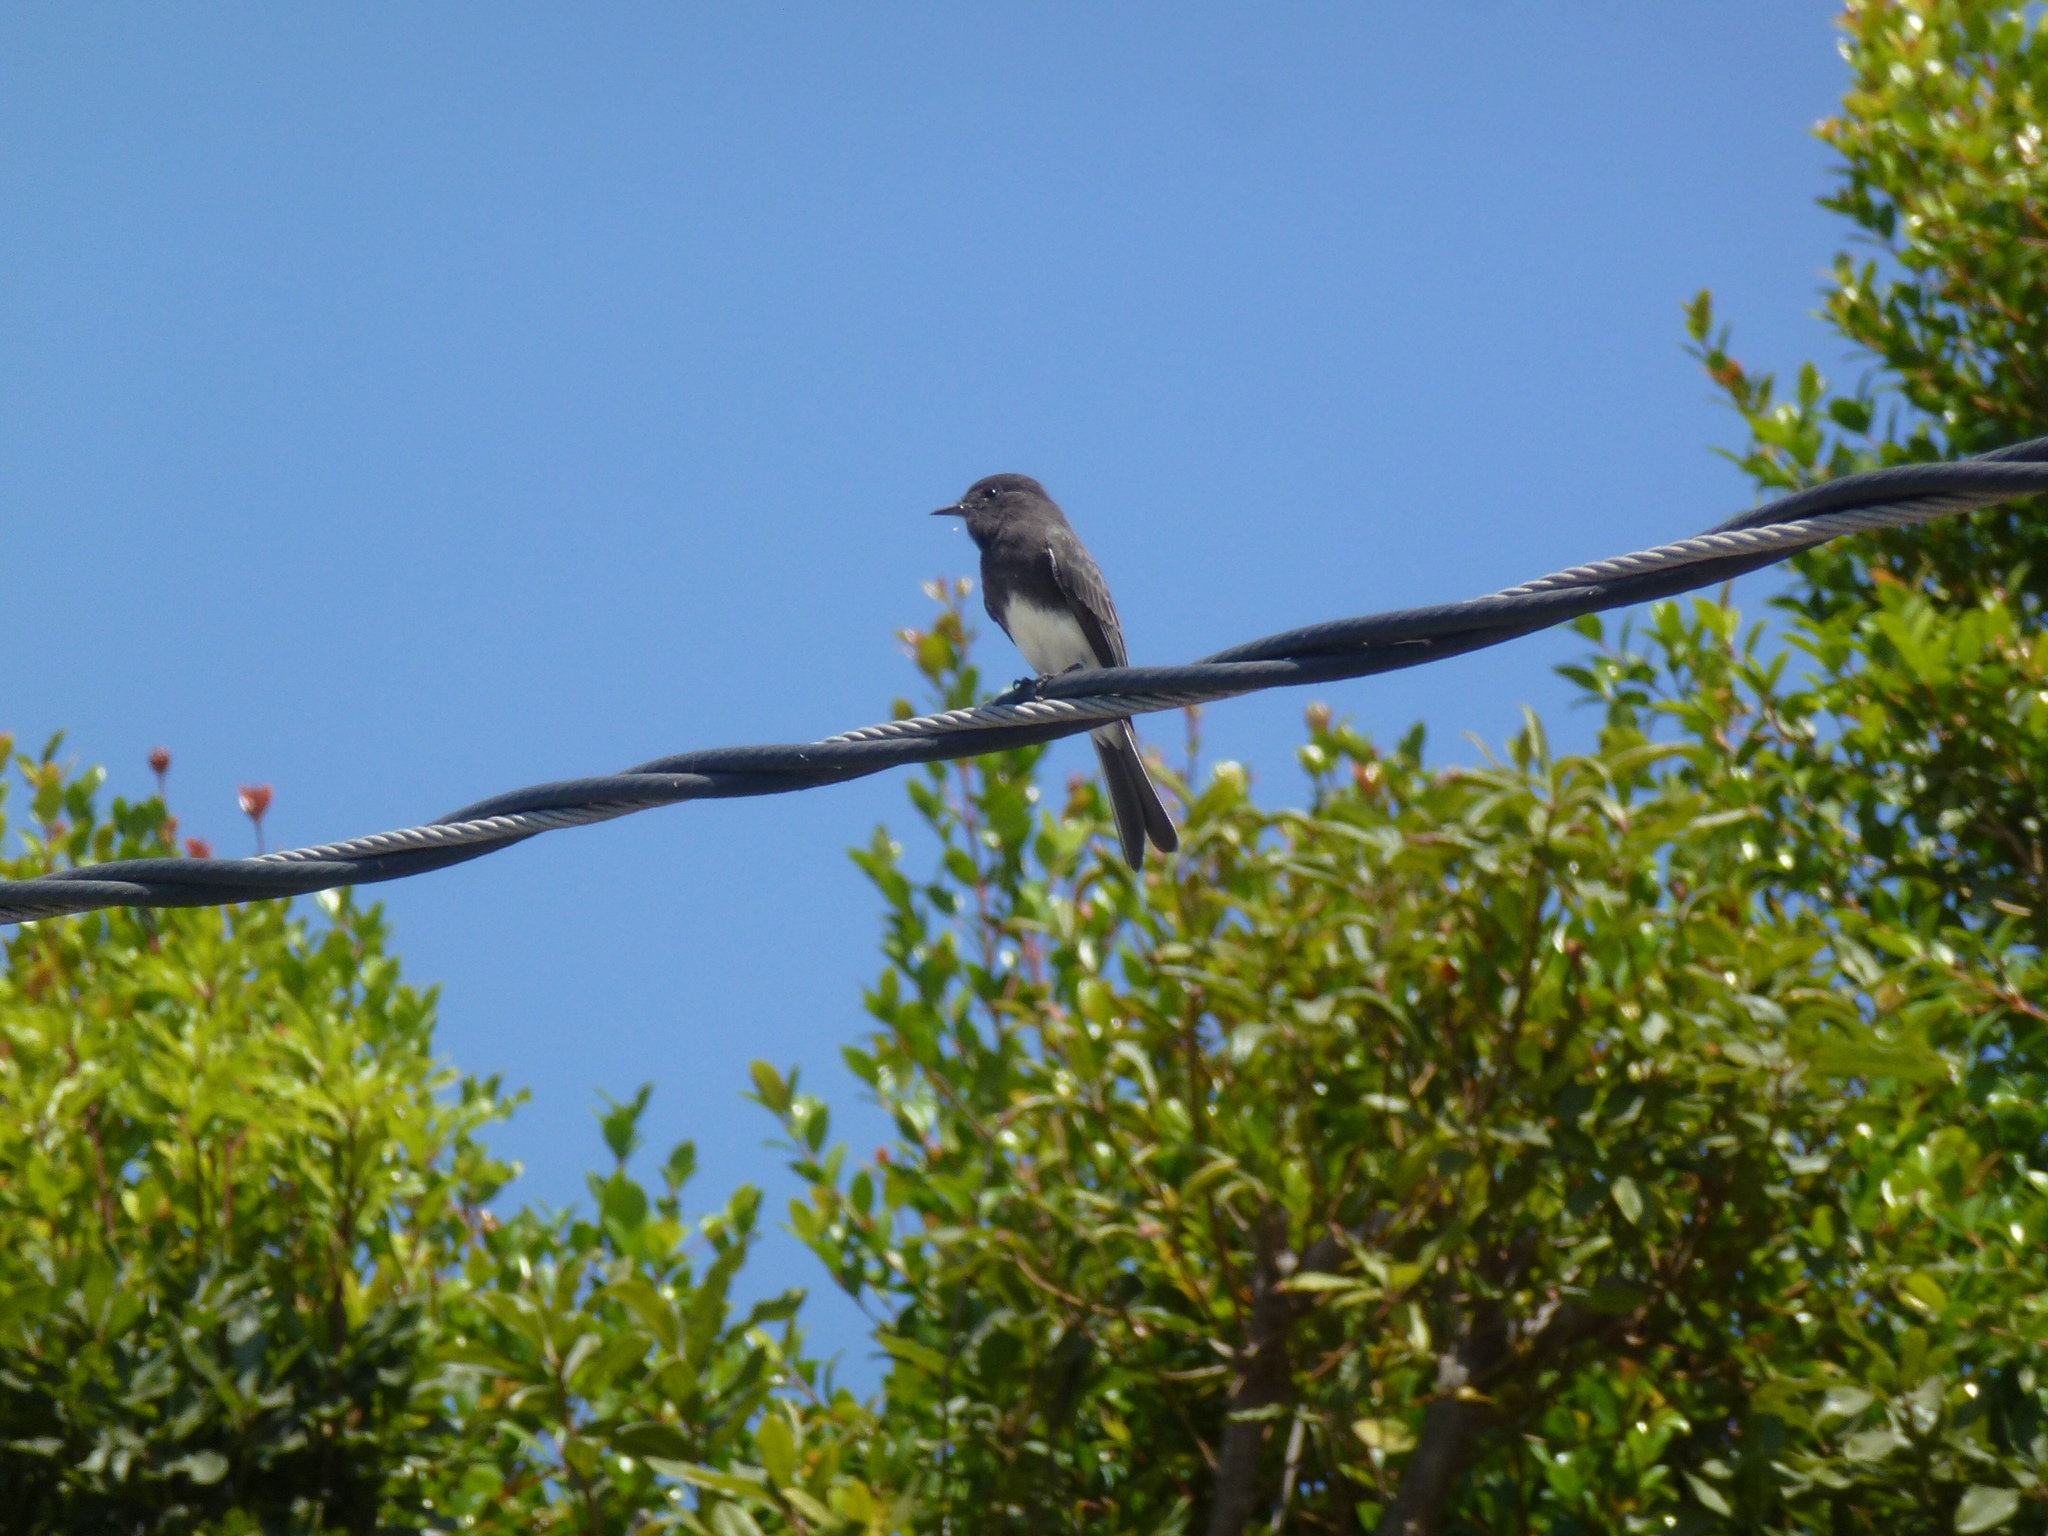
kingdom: Animalia
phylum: Chordata
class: Aves
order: Passeriformes
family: Tyrannidae
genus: Sayornis
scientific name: Sayornis nigricans
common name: Black phoebe
